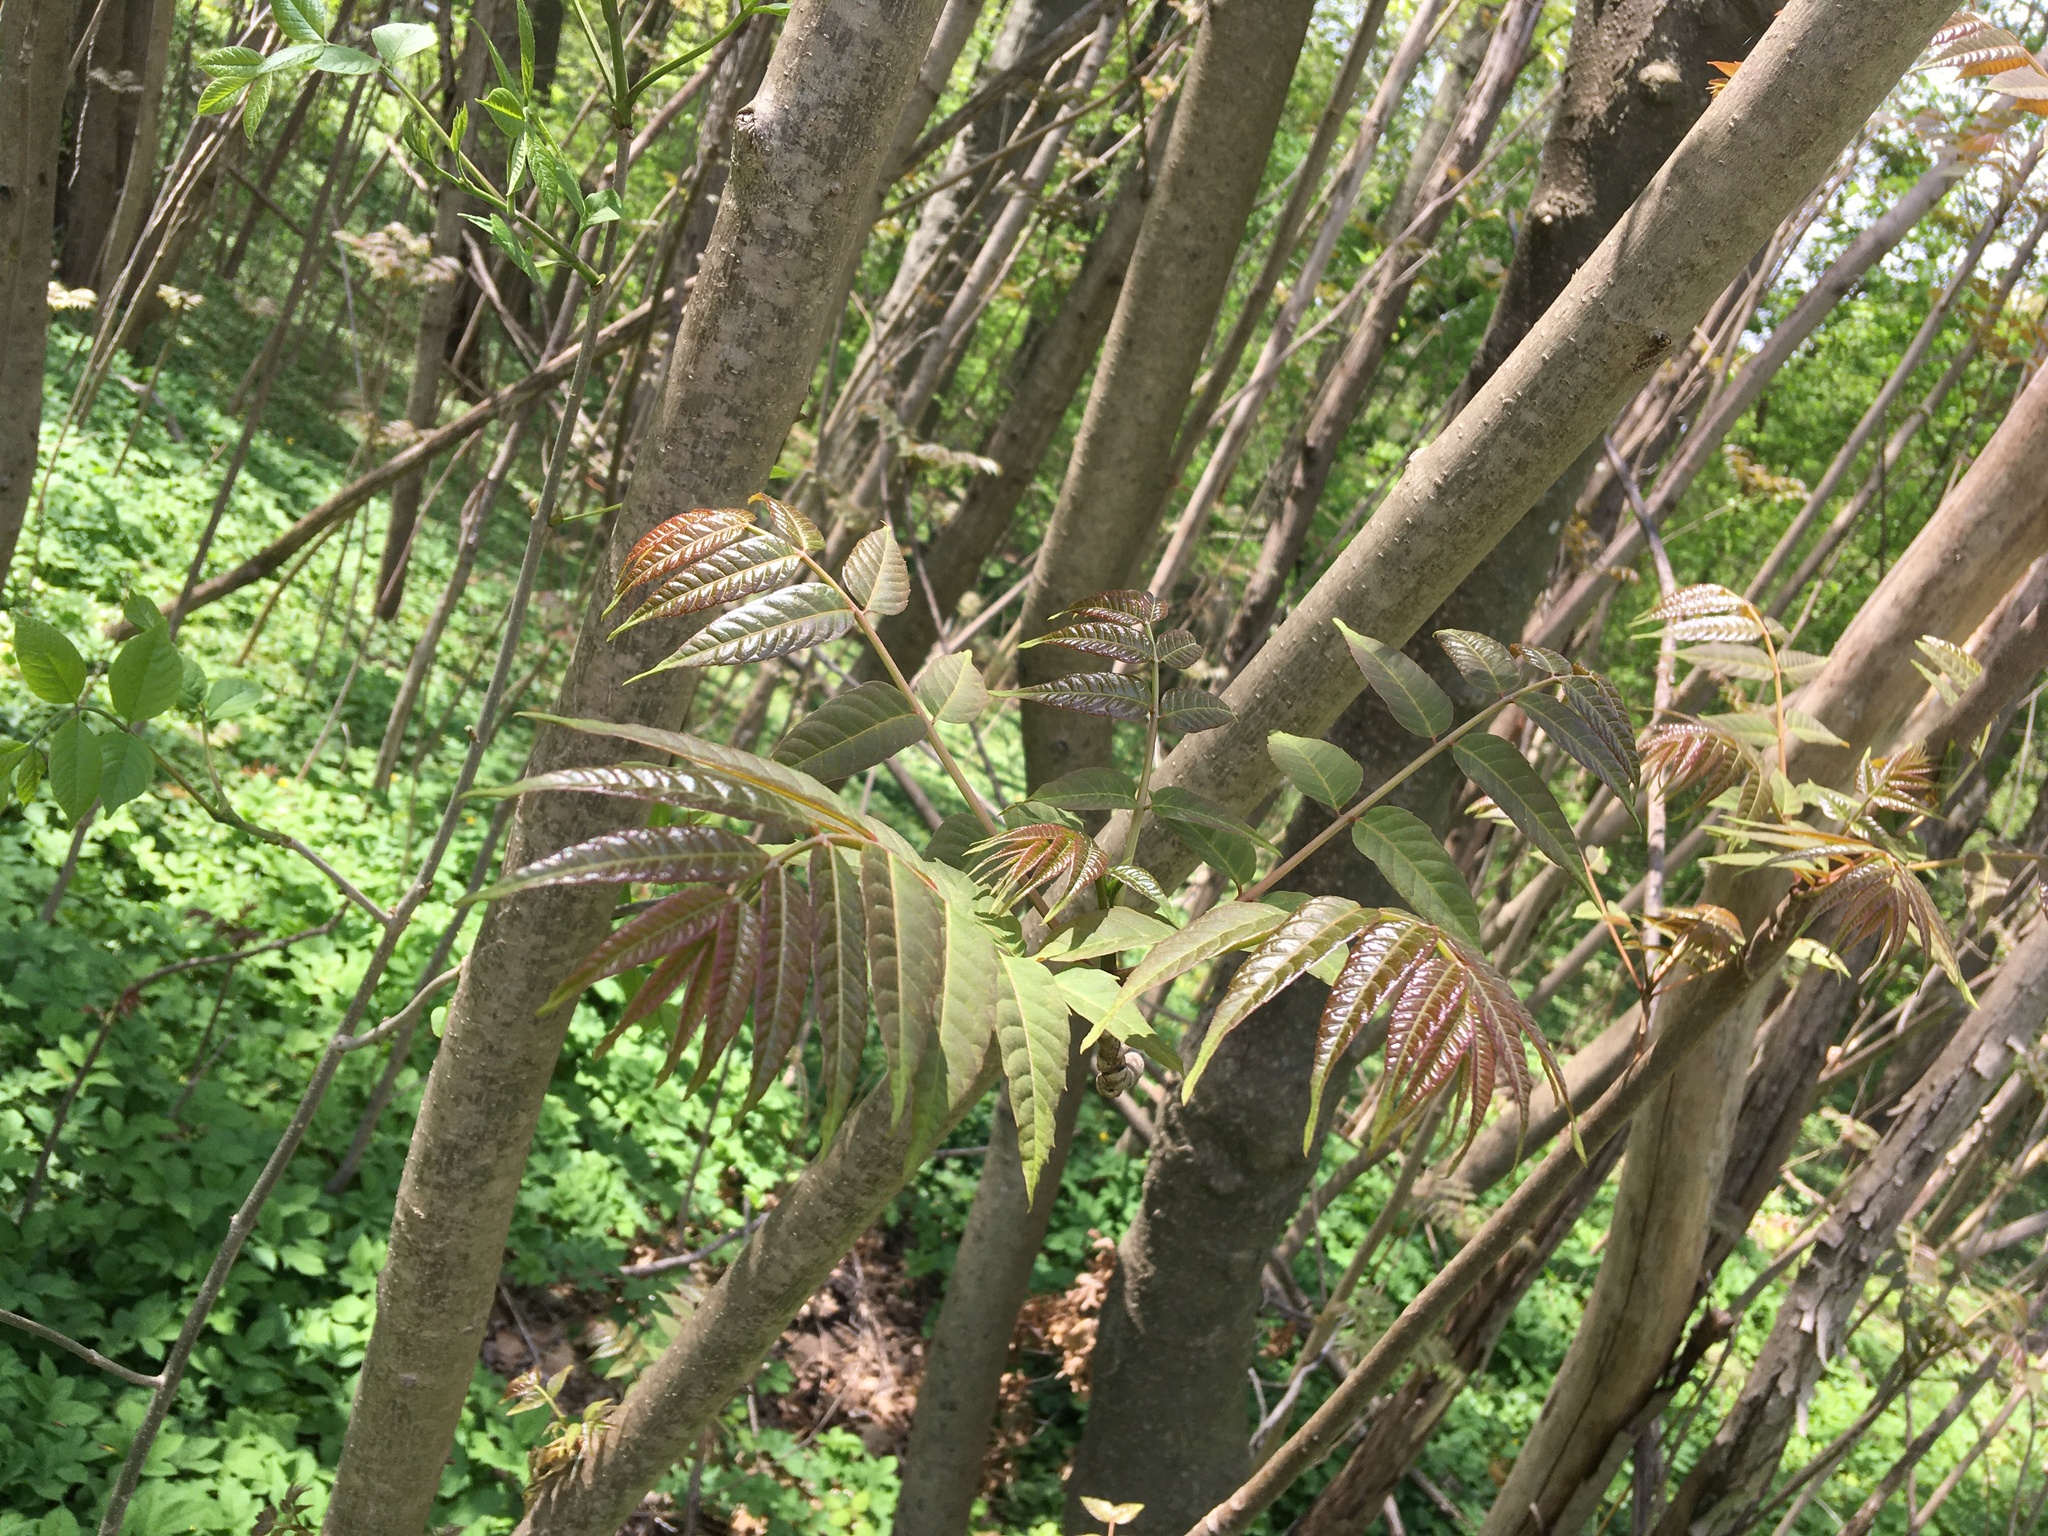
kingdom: Plantae
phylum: Tracheophyta
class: Magnoliopsida
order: Sapindales
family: Meliaceae
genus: Toona
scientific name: Toona sinensis
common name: Red toon
